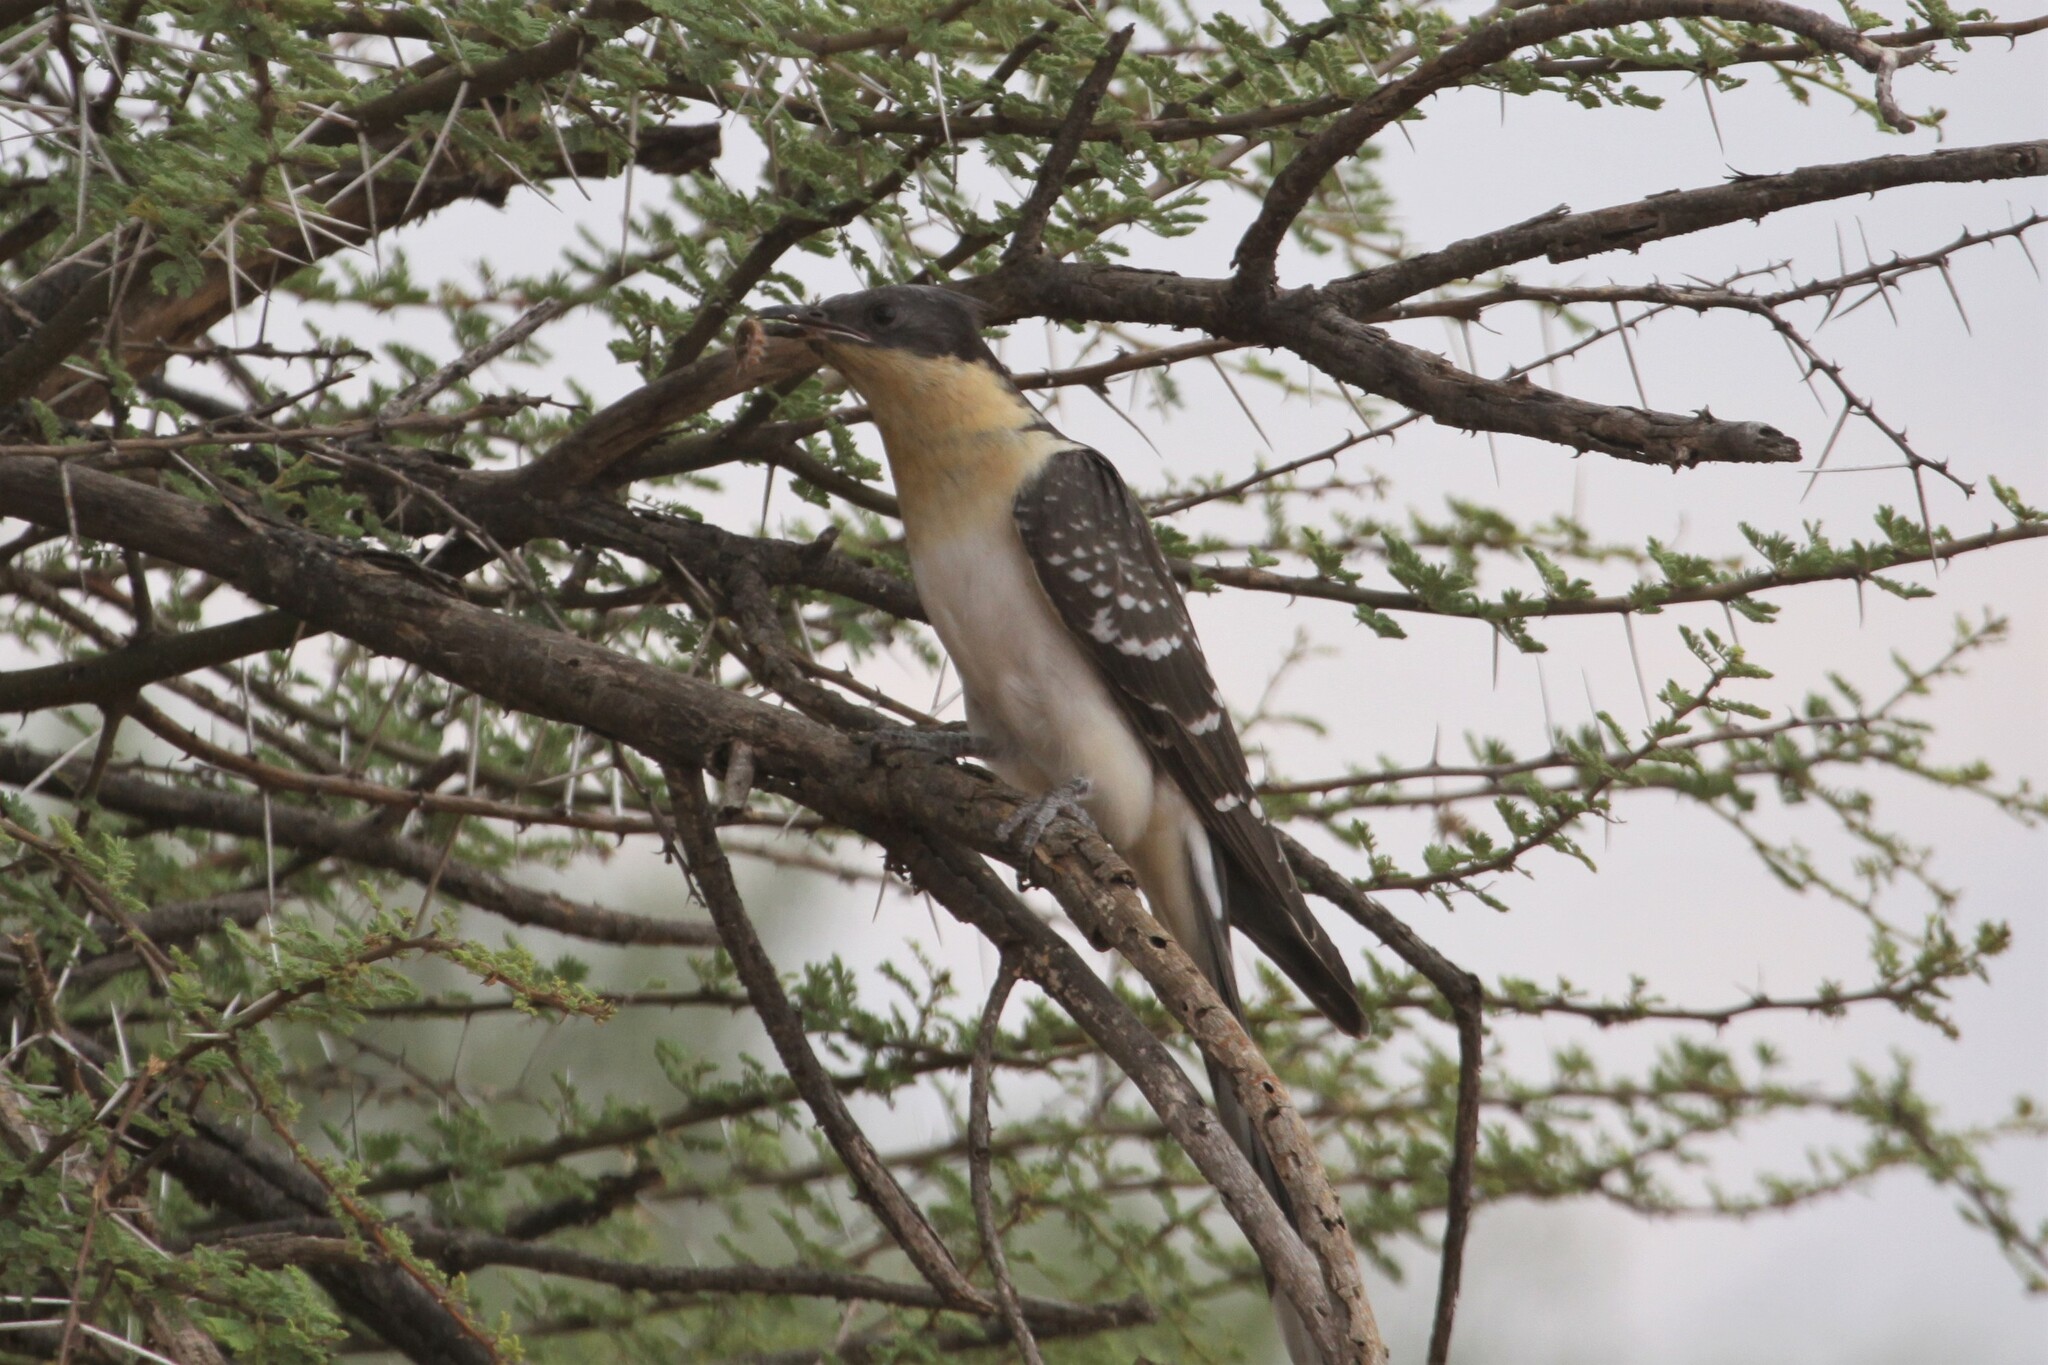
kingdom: Animalia
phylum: Chordata
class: Aves
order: Cuculiformes
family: Cuculidae
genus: Clamator
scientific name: Clamator glandarius
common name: Great spotted cuckoo
